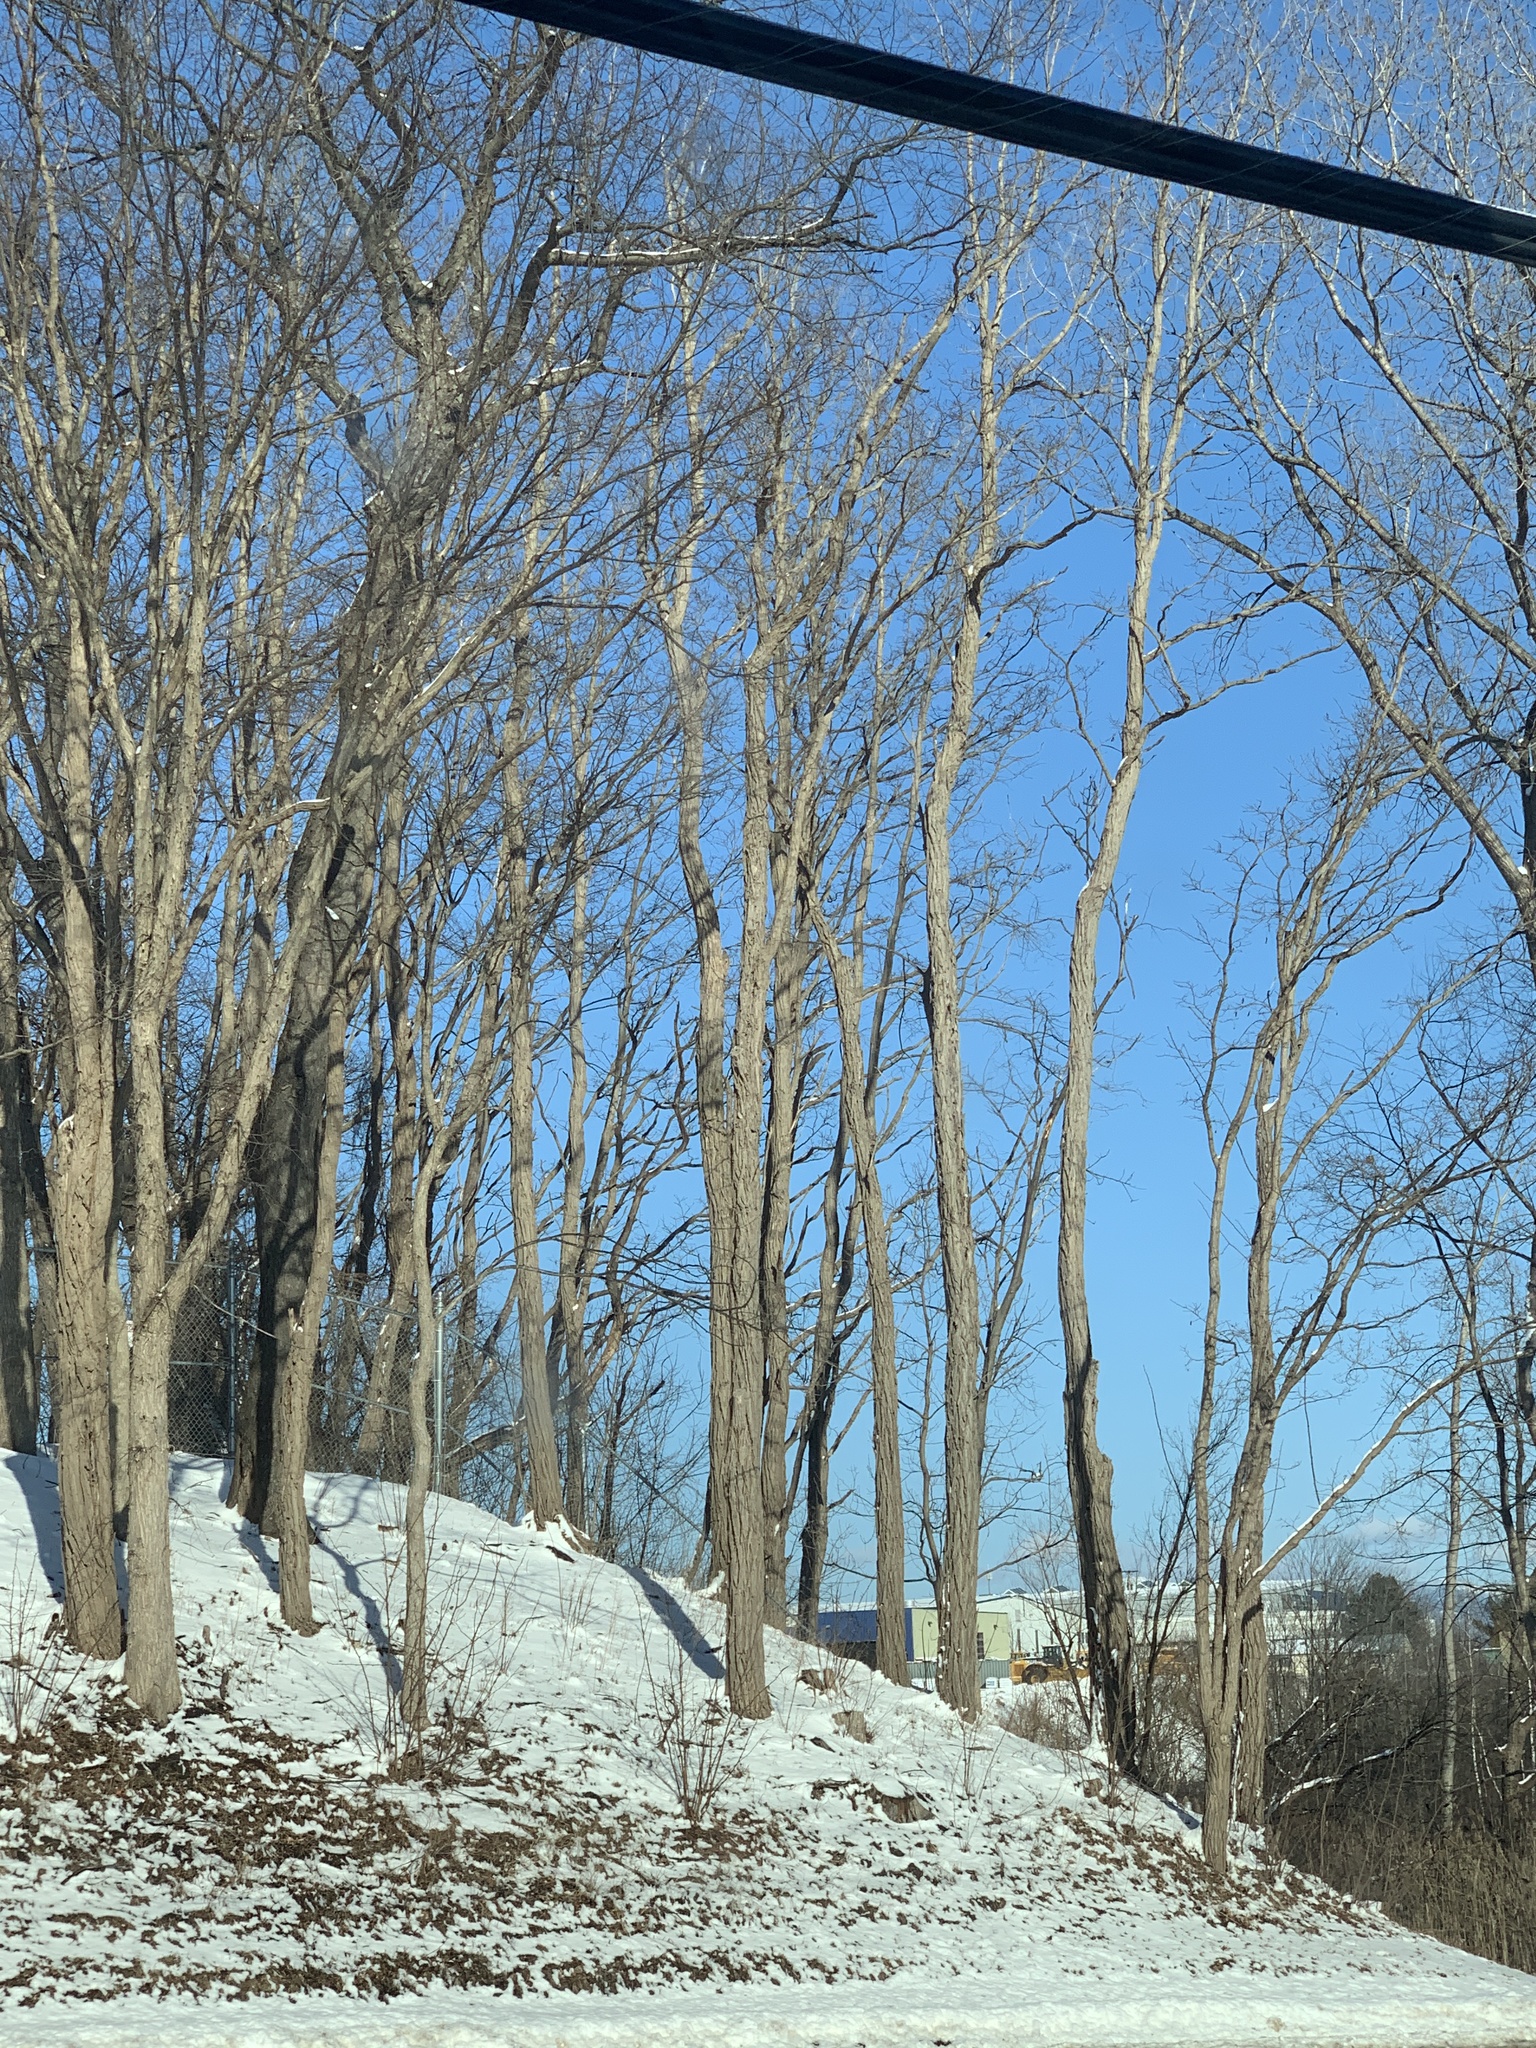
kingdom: Plantae
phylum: Tracheophyta
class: Magnoliopsida
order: Fabales
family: Fabaceae
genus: Robinia
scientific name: Robinia pseudoacacia
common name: Black locust
